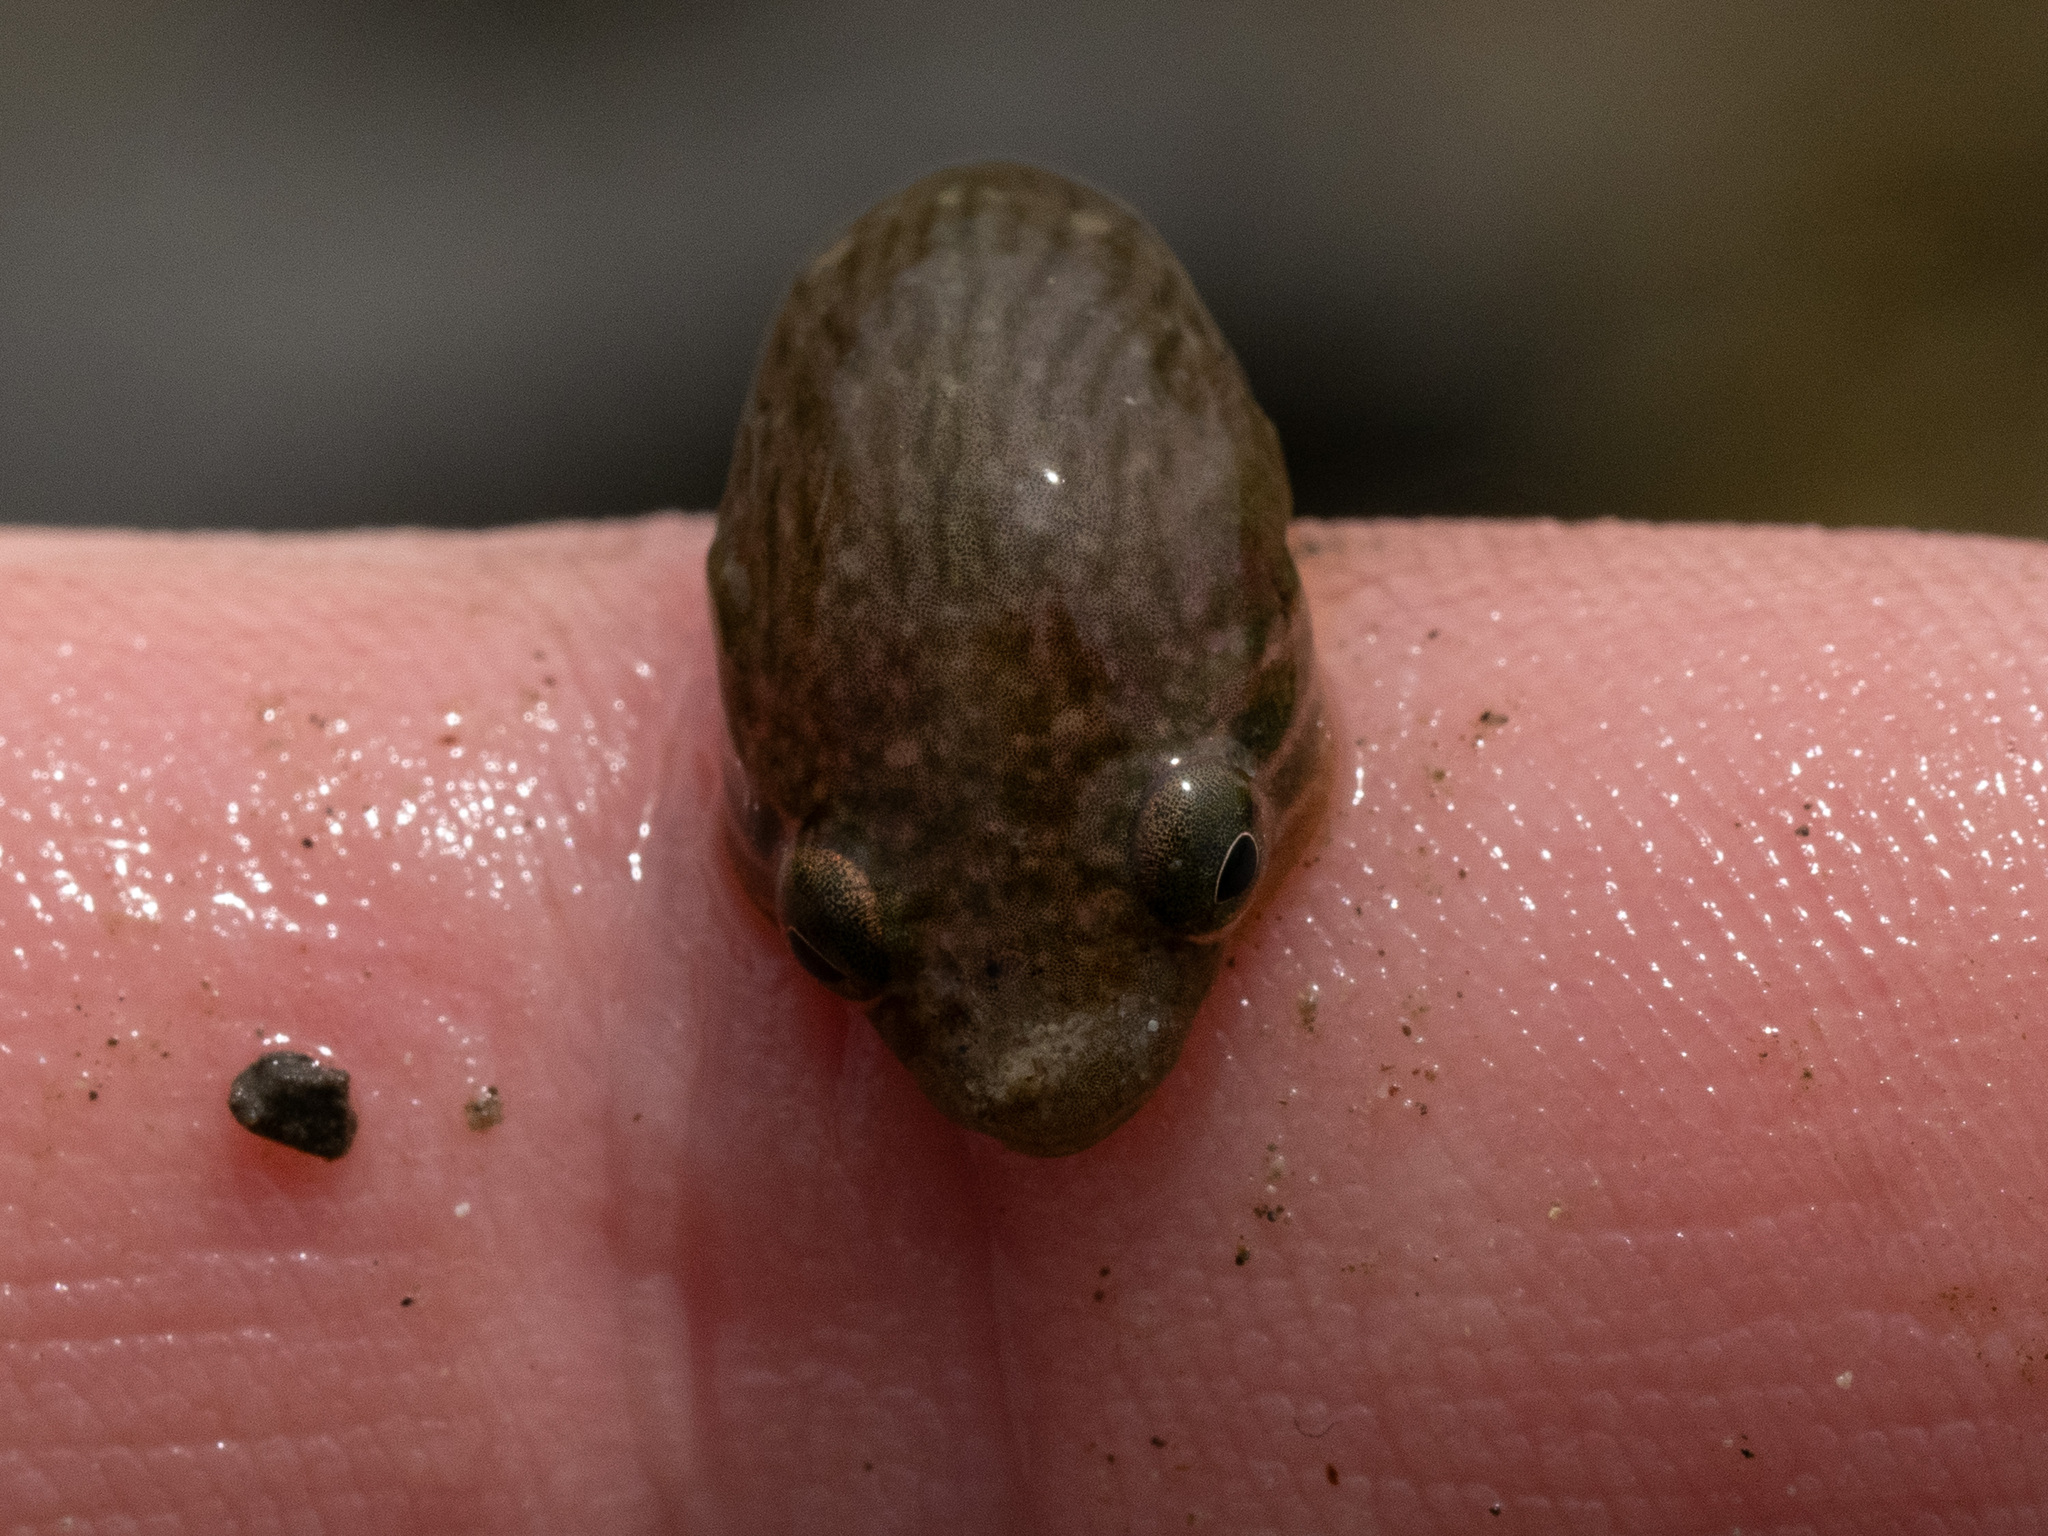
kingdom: Animalia
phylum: Chordata
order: Gobiesociformes
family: Gobiesocidae
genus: Trachelochismus
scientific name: Trachelochismus pinnulatus
